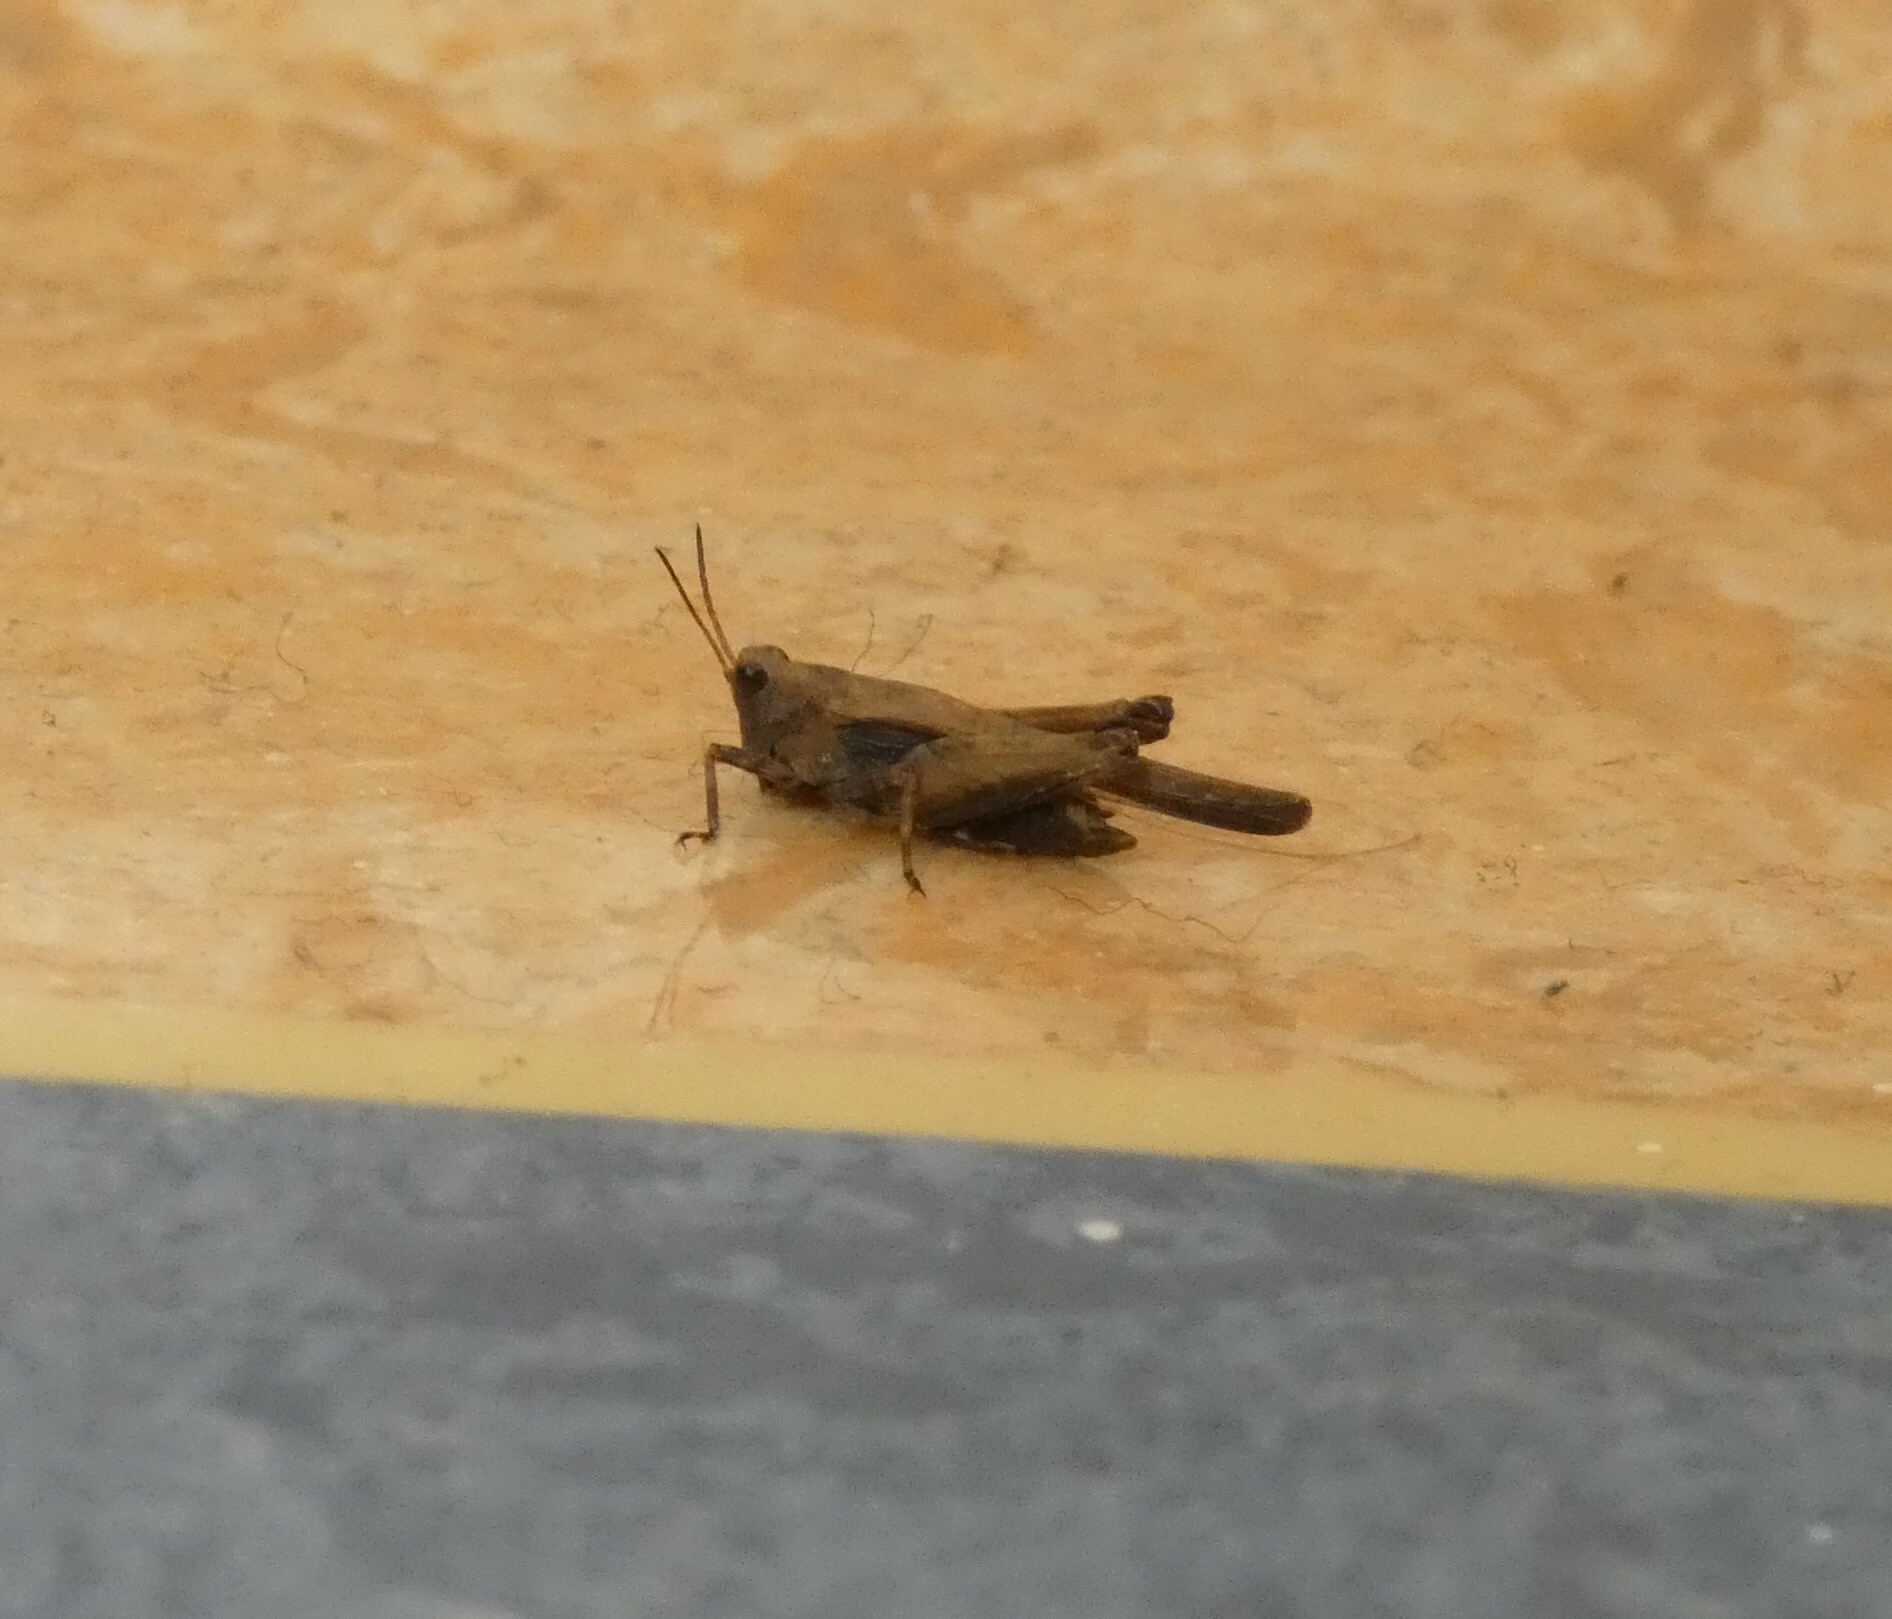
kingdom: Animalia
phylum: Arthropoda
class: Insecta
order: Orthoptera
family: Tetrigidae
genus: Tetrix
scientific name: Tetrix subulata
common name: Slender ground-hopper
